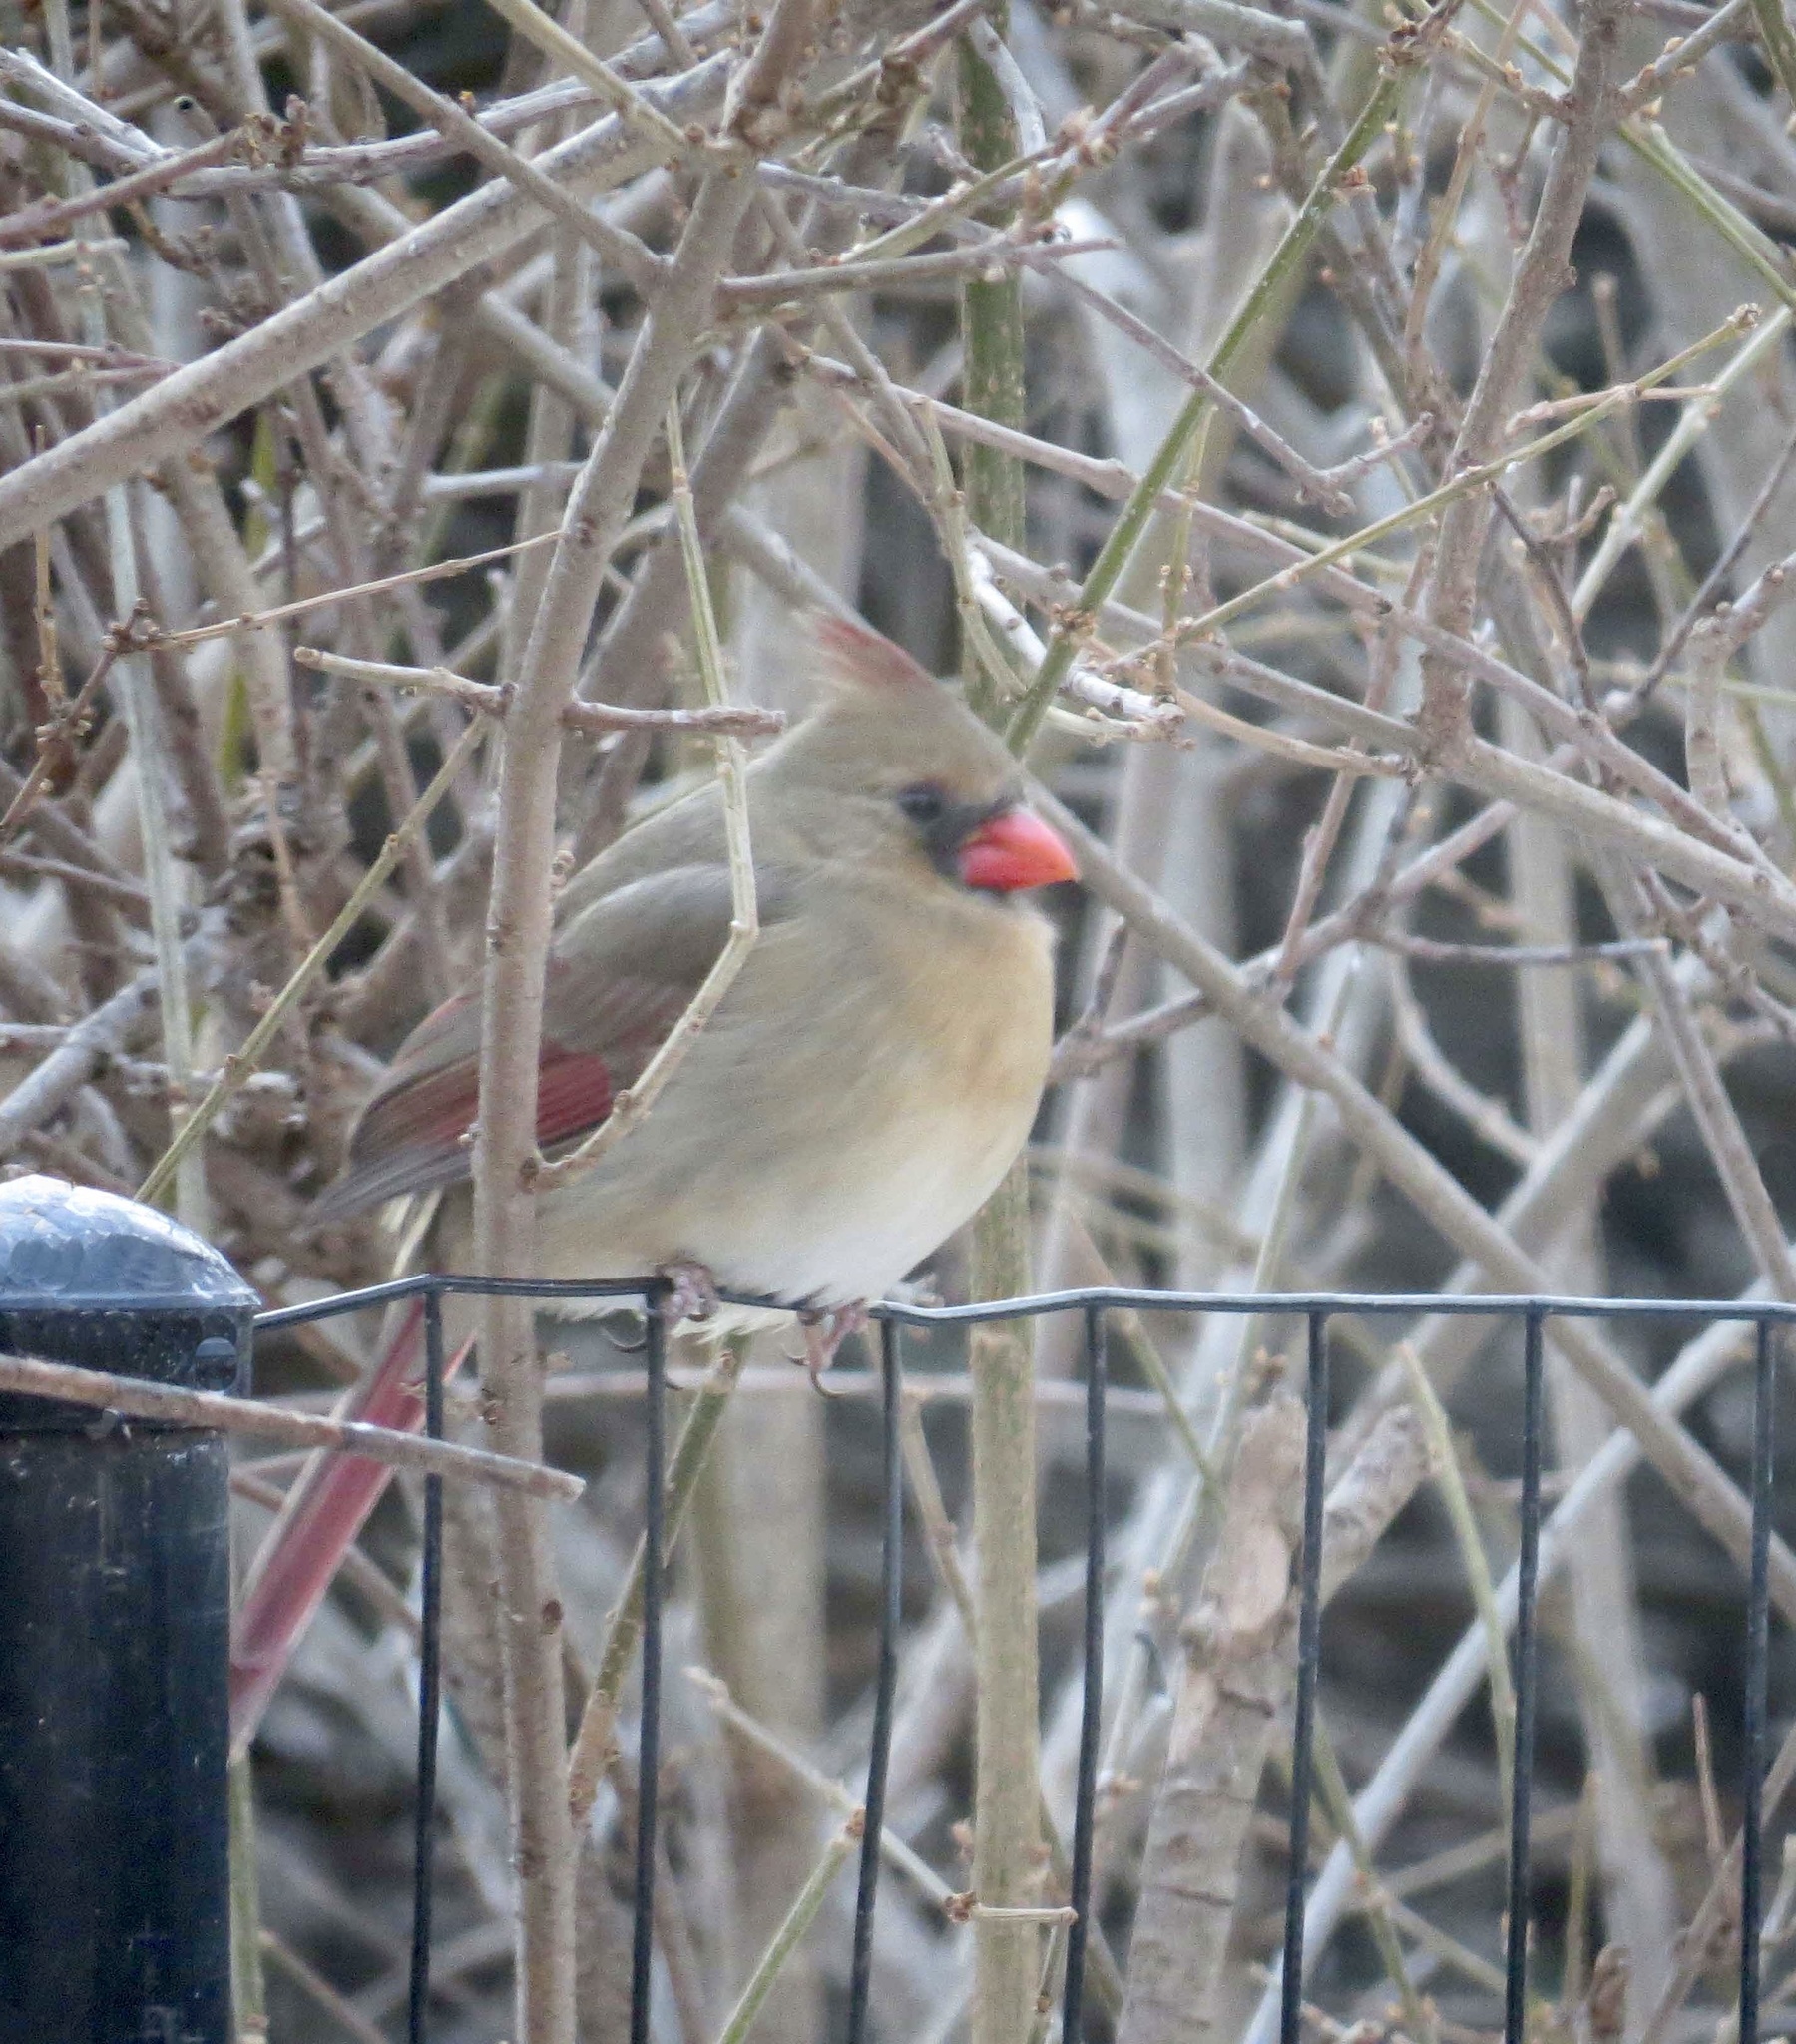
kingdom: Animalia
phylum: Chordata
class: Aves
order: Passeriformes
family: Cardinalidae
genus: Cardinalis
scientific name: Cardinalis cardinalis
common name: Northern cardinal
